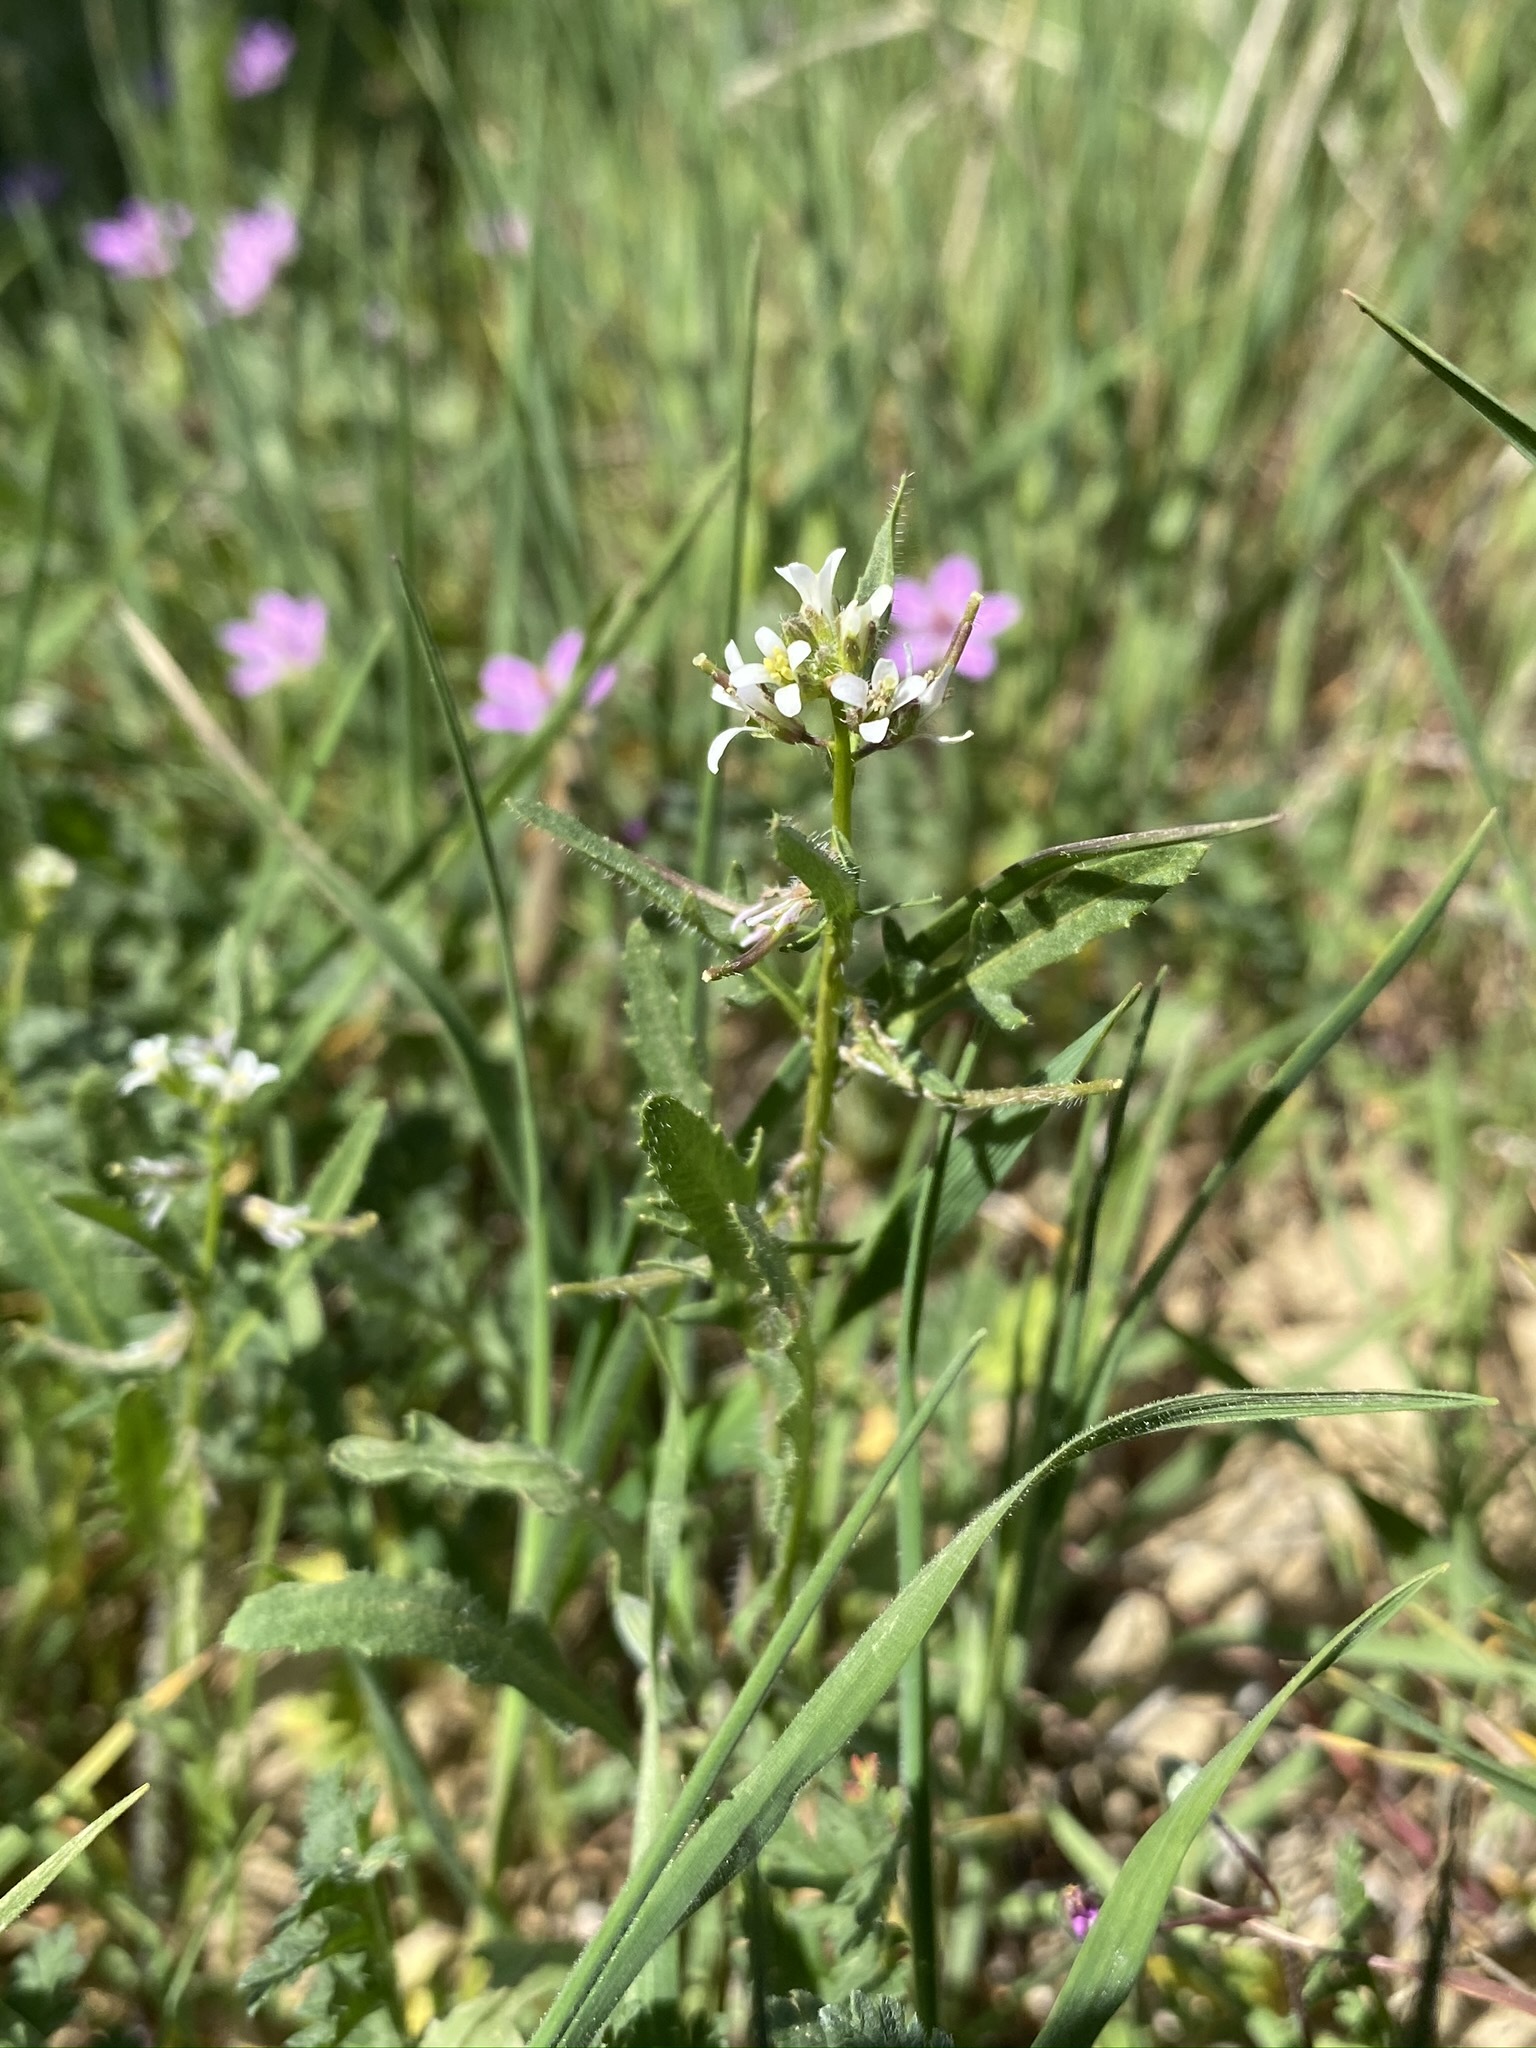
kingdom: Plantae
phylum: Tracheophyta
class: Magnoliopsida
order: Brassicales
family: Brassicaceae
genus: Streptanthus
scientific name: Streptanthus lasiophyllus
